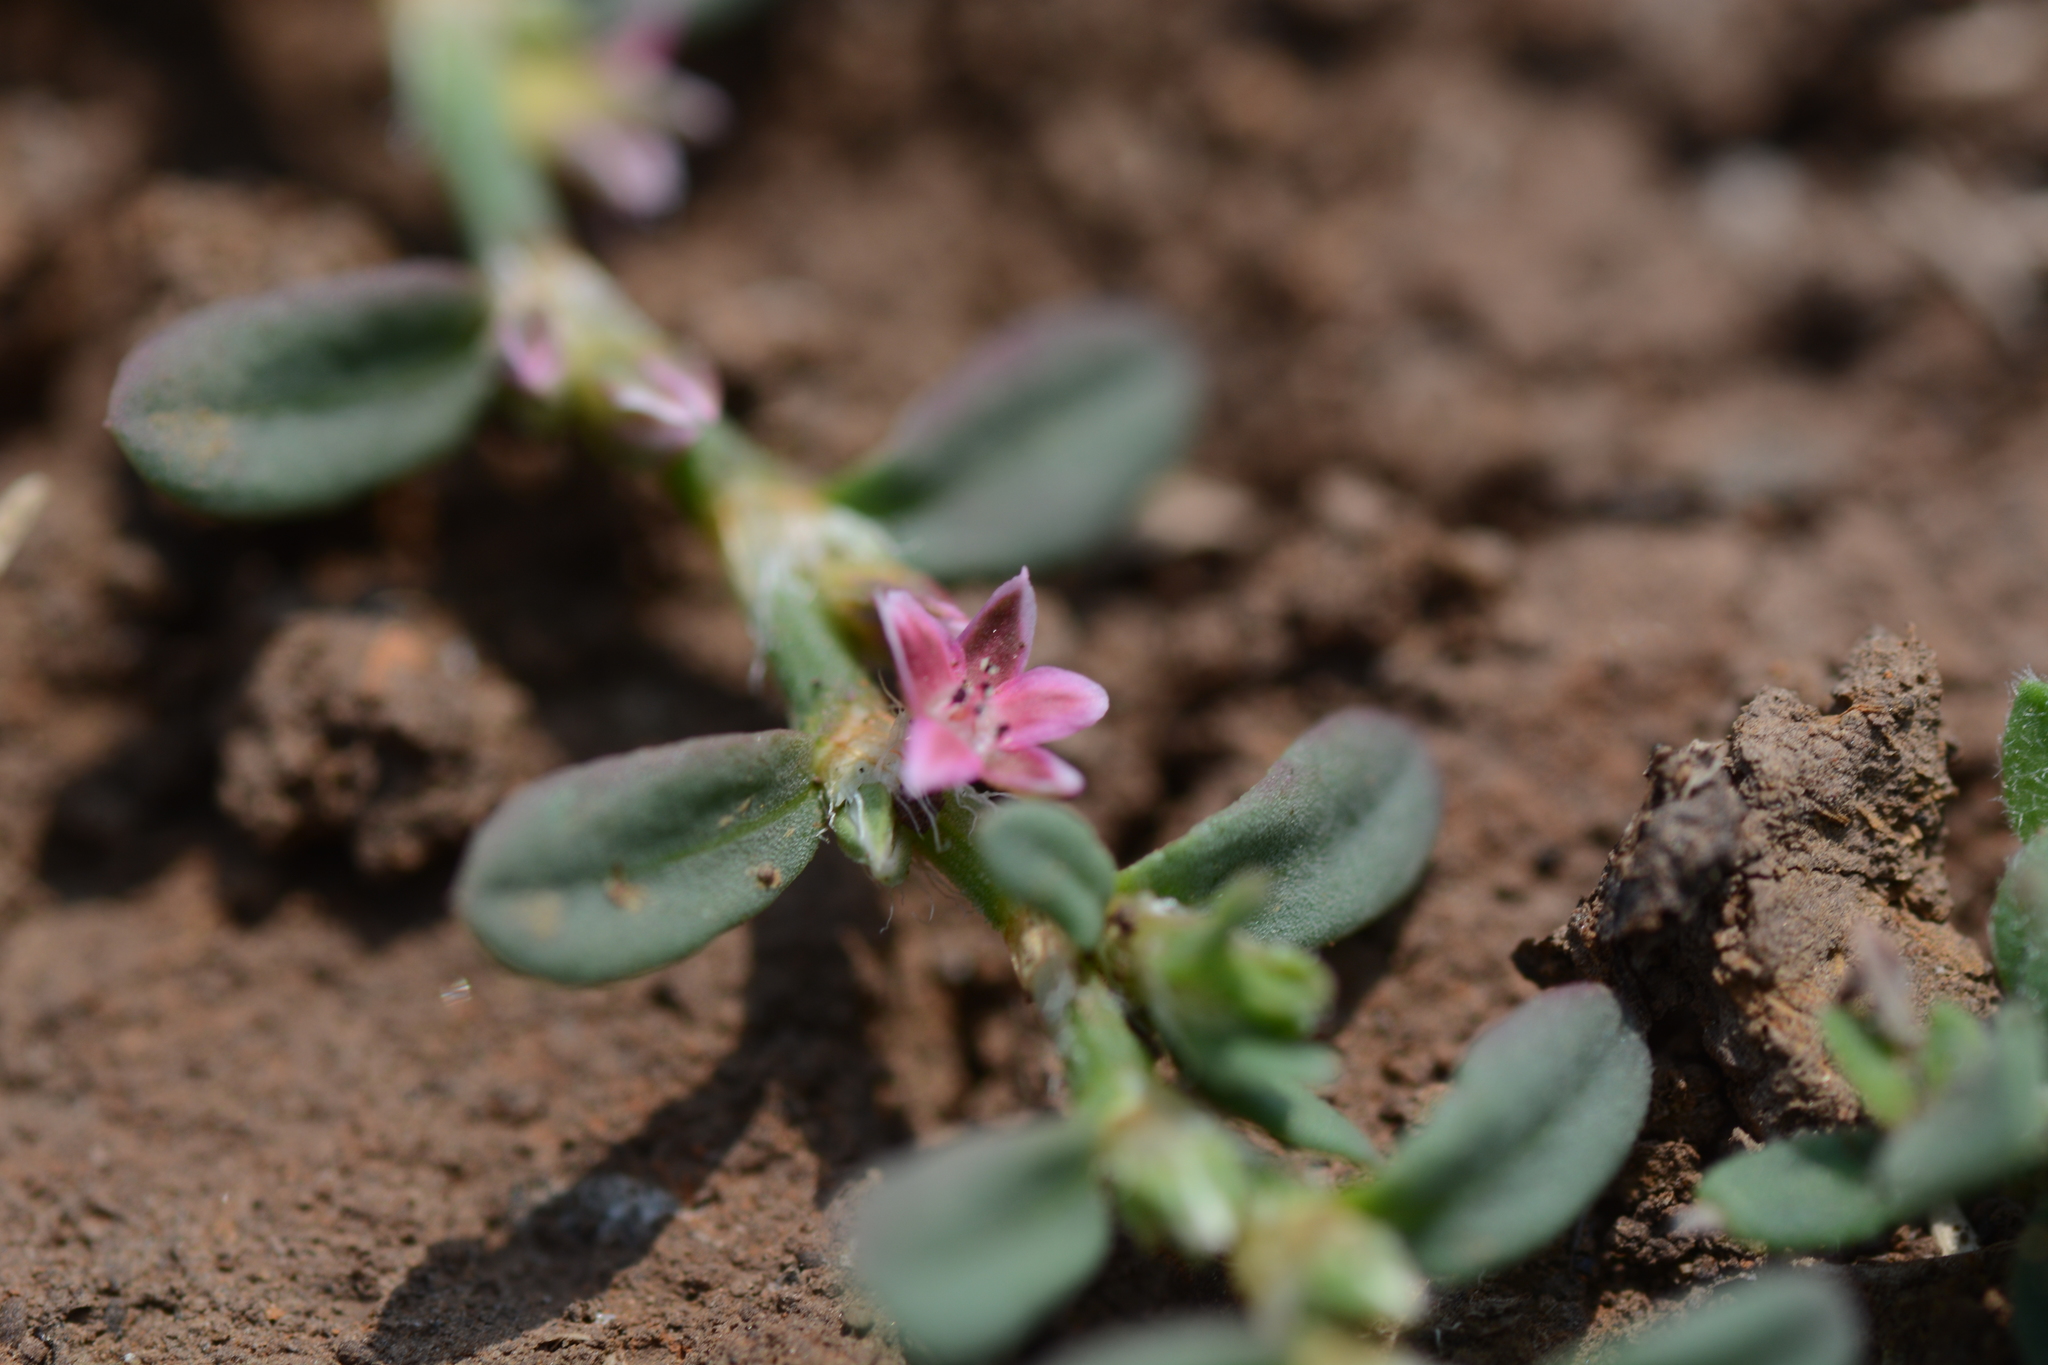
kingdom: Plantae
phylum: Tracheophyta
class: Magnoliopsida
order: Caryophyllales
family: Polygonaceae
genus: Polygonum
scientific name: Polygonum plebeium
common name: Common knotweed
